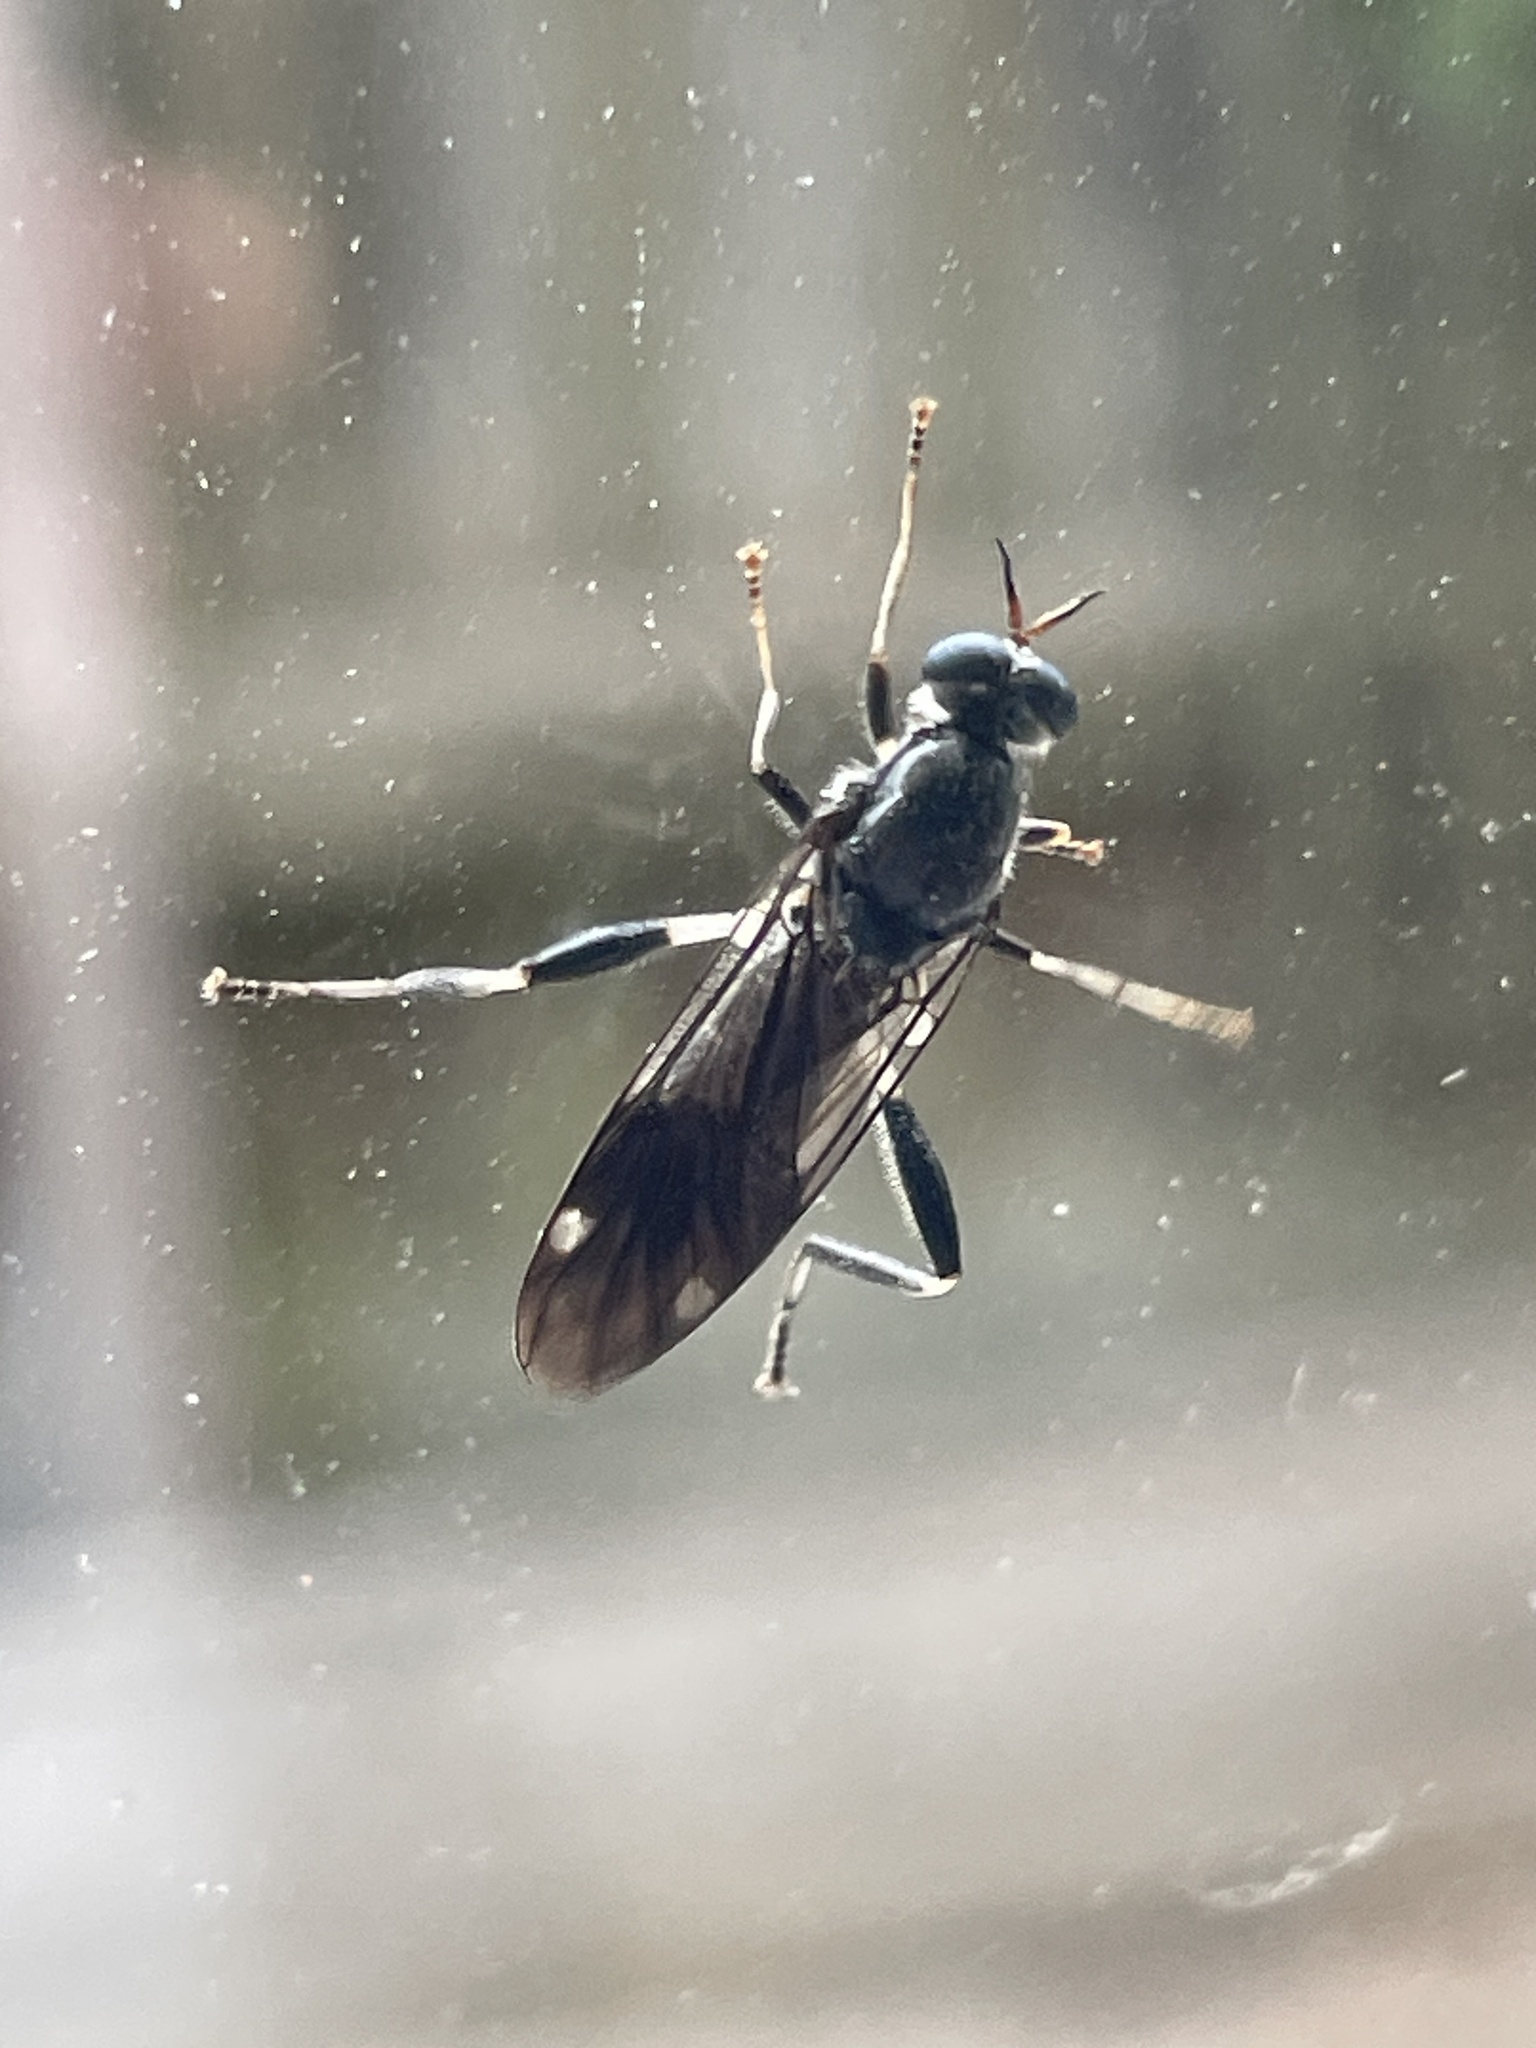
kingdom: Animalia
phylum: Arthropoda
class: Insecta
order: Diptera
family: Stratiomyidae
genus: Exaireta
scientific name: Exaireta spinigera
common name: Blue soldier fly
